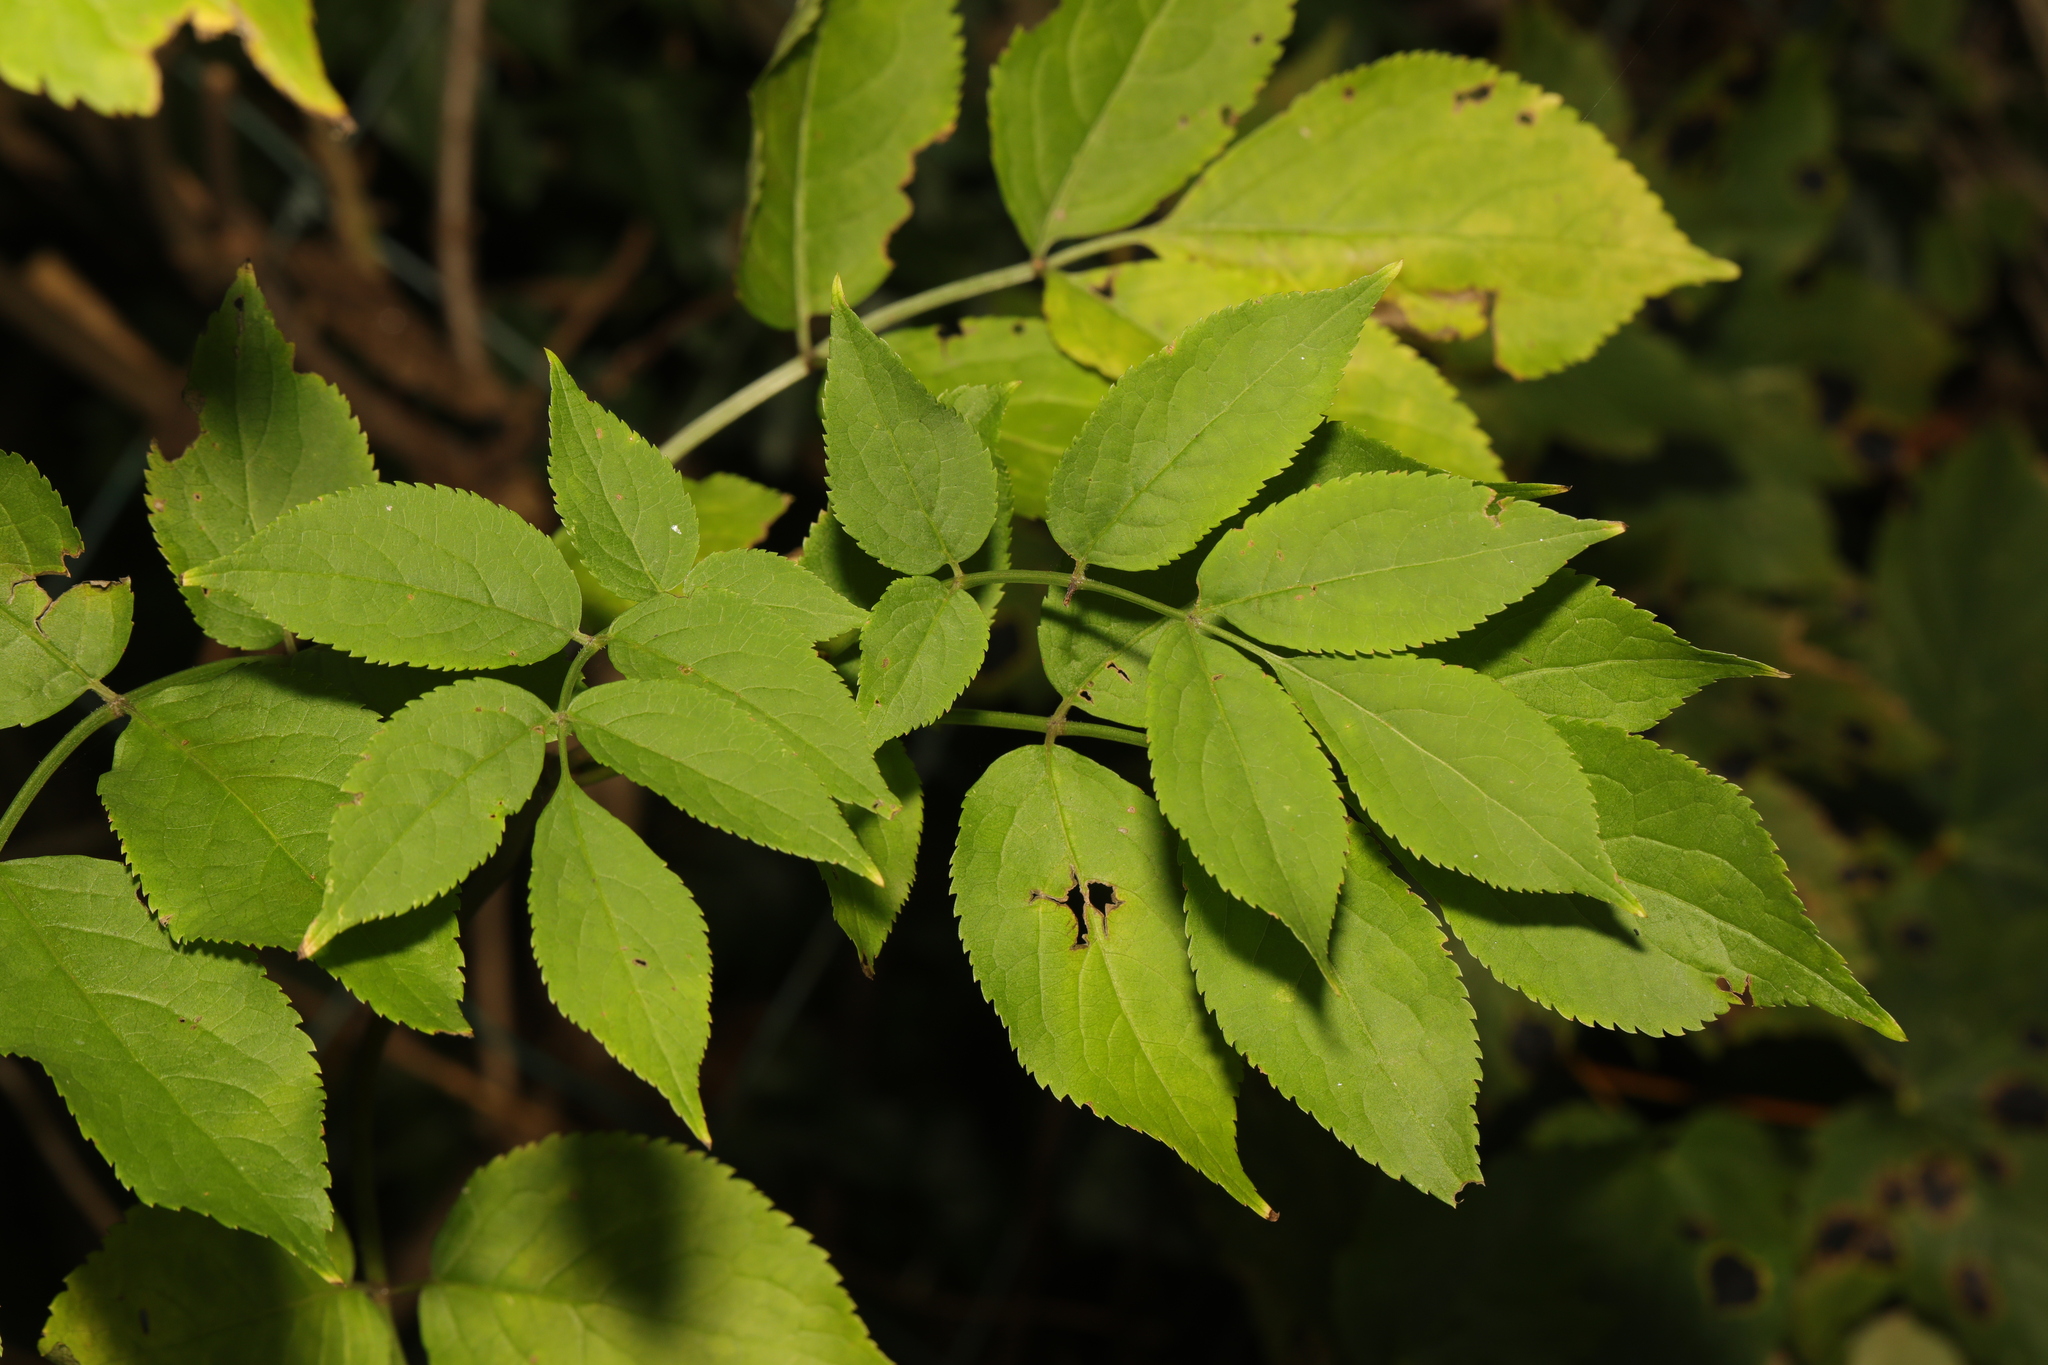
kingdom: Plantae
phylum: Tracheophyta
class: Magnoliopsida
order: Dipsacales
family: Viburnaceae
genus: Sambucus
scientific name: Sambucus nigra
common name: Elder
